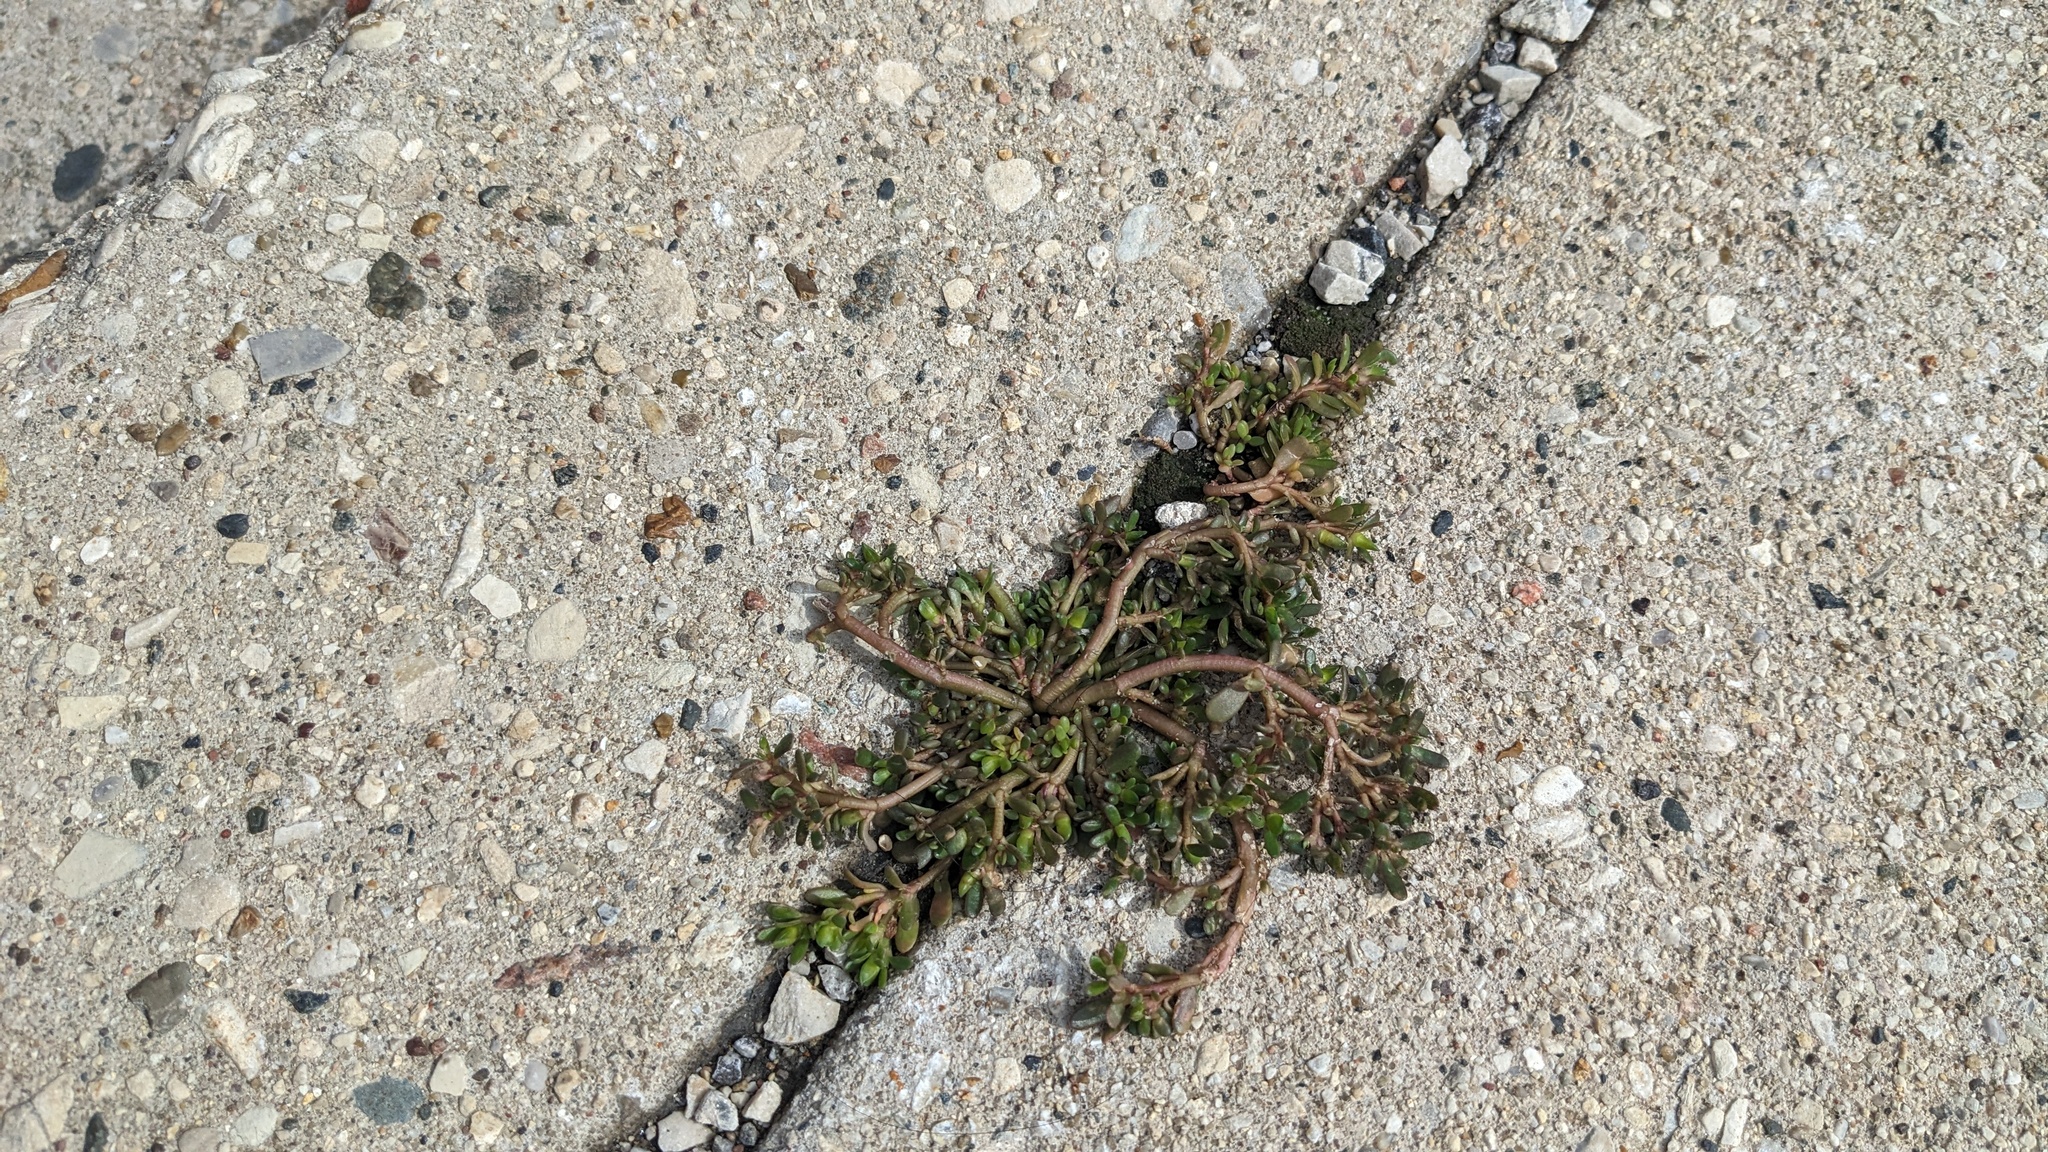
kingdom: Plantae
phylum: Tracheophyta
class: Magnoliopsida
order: Caryophyllales
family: Portulacaceae
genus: Portulaca
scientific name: Portulaca oleracea
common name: Common purslane
